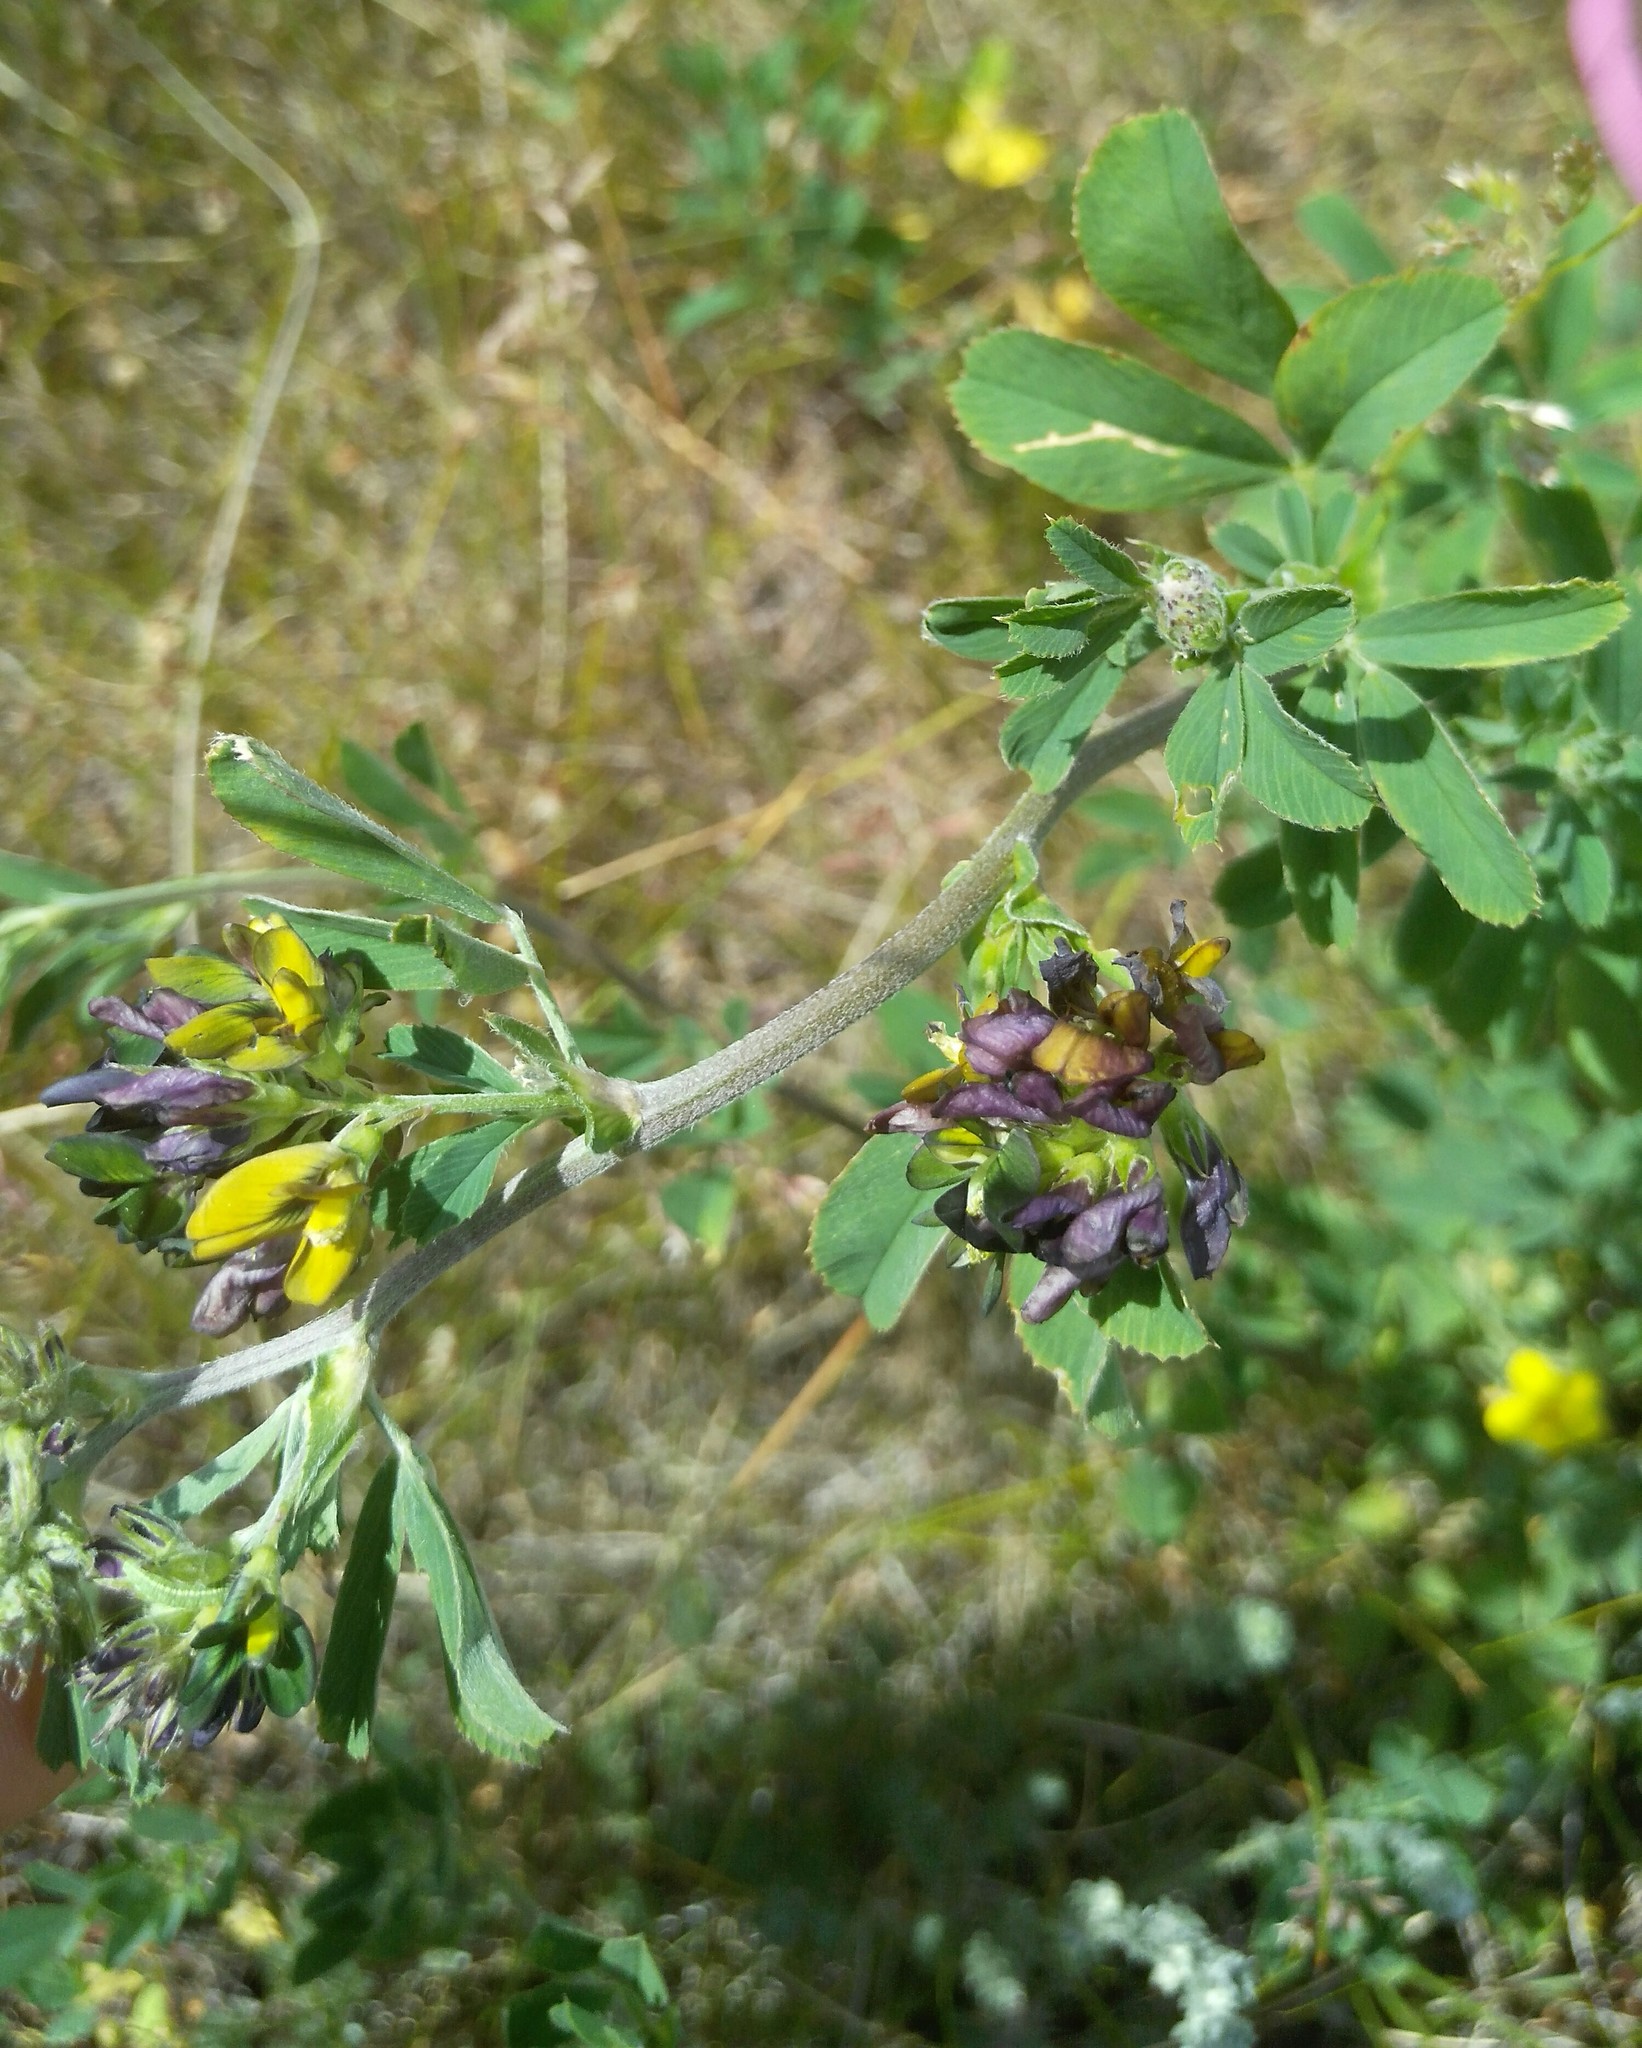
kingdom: Plantae
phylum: Tracheophyta
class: Magnoliopsida
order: Fabales
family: Fabaceae
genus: Medicago
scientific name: Medicago varia
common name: Sand lucerne
